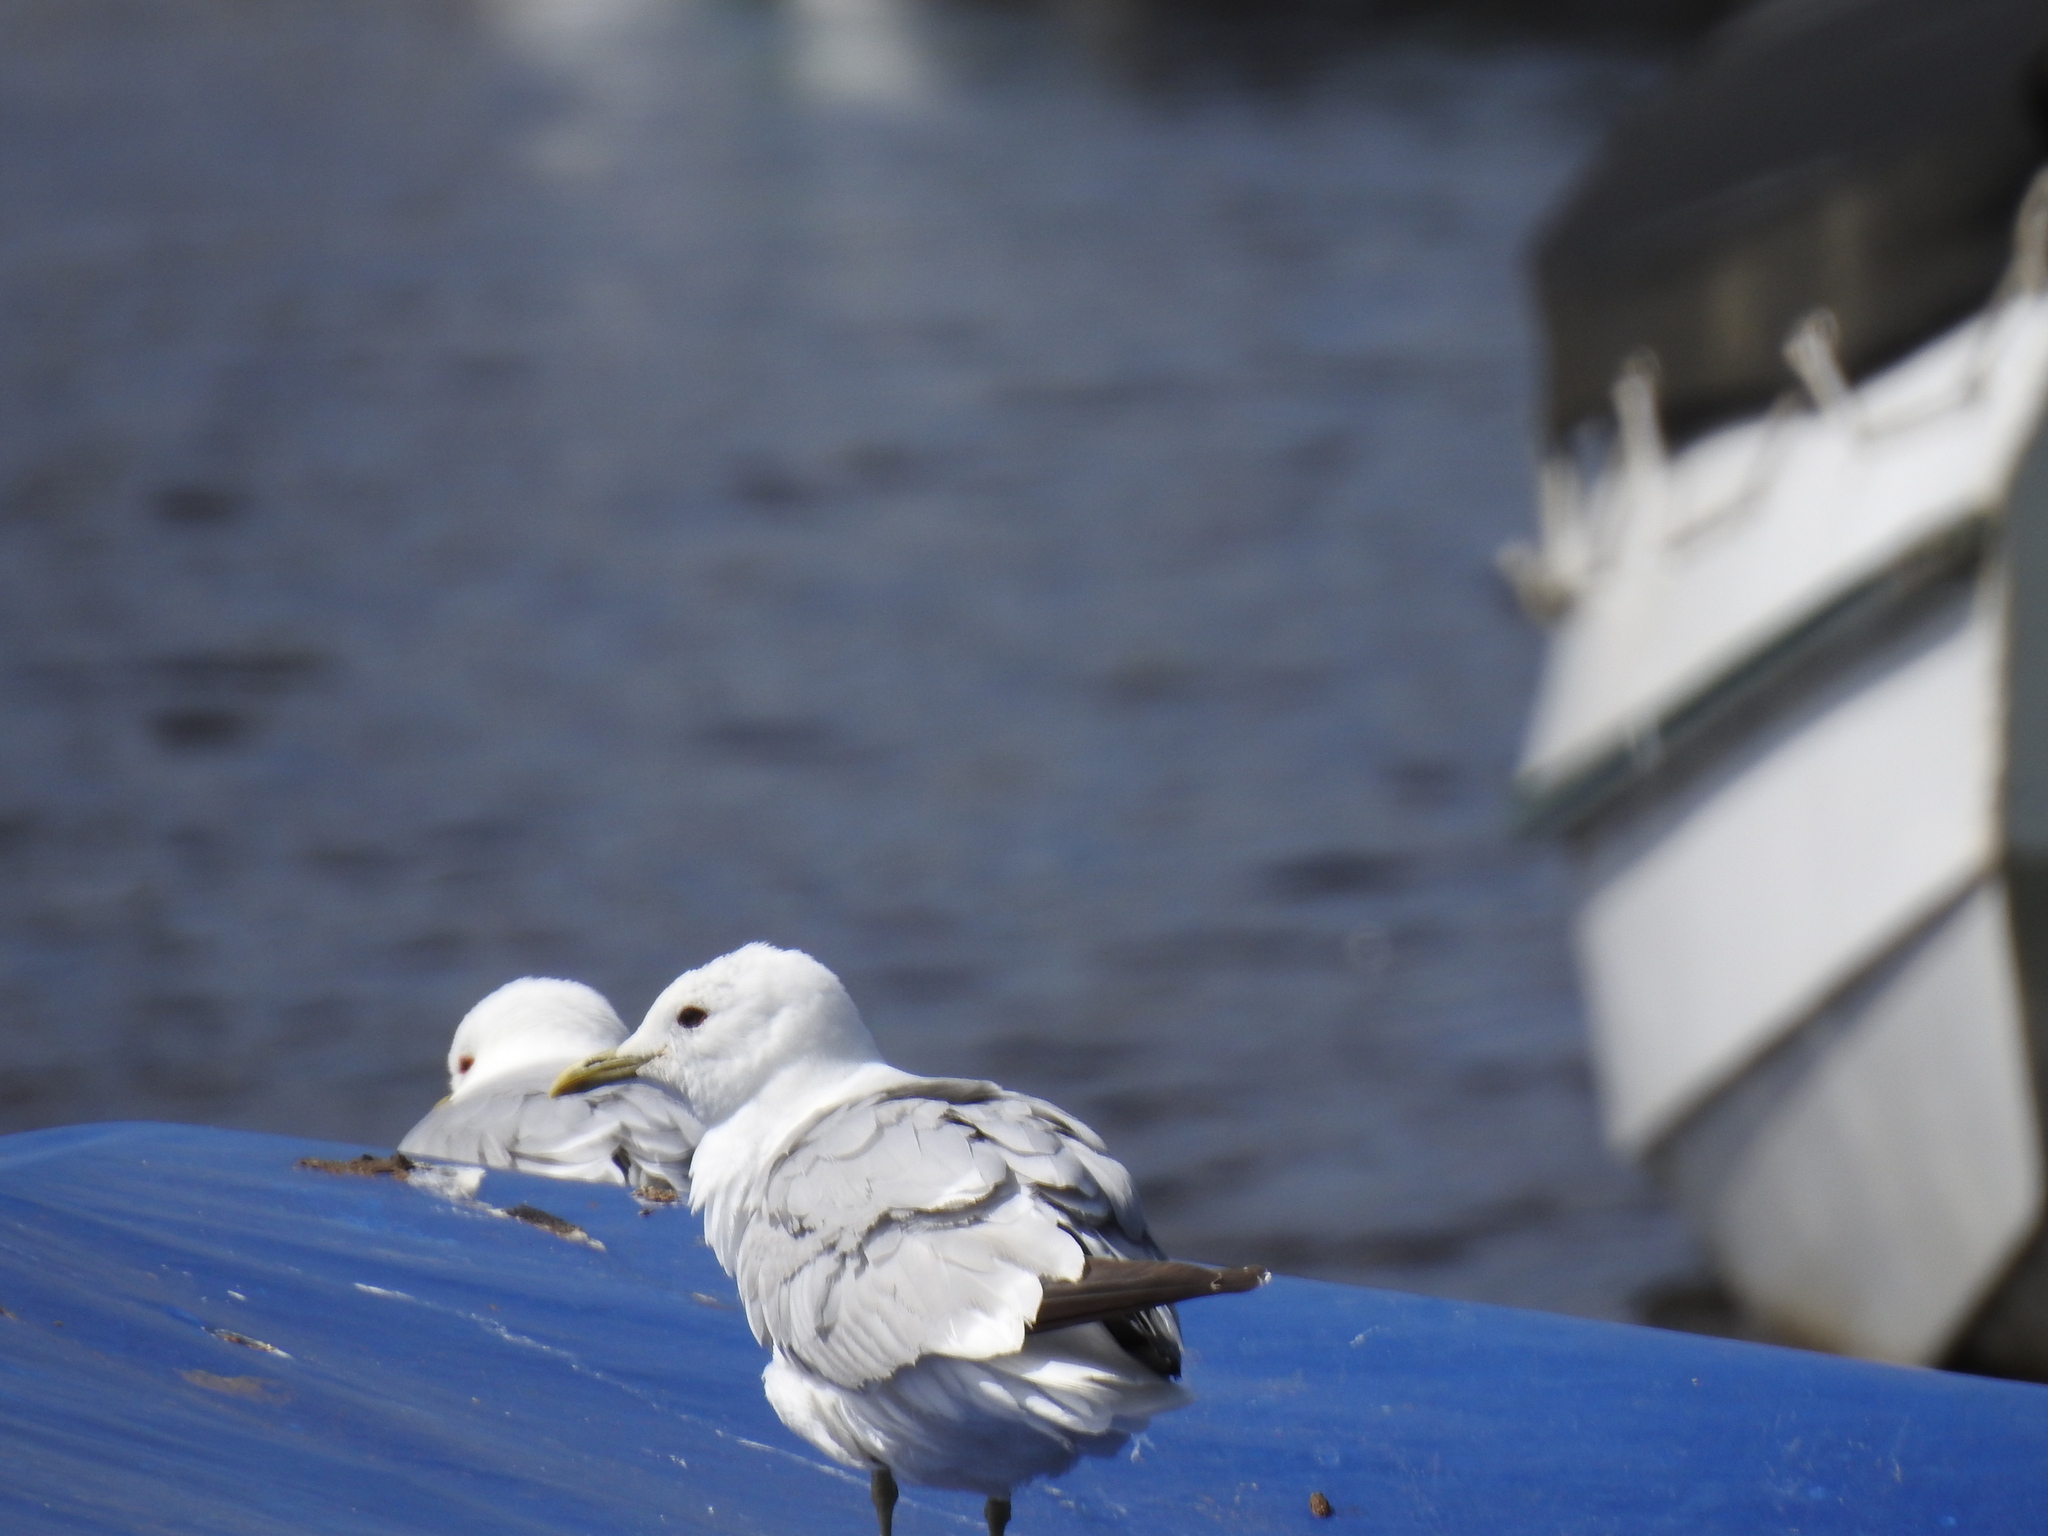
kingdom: Animalia
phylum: Chordata
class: Aves
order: Charadriiformes
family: Laridae
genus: Larus
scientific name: Larus canus
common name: Mew gull
